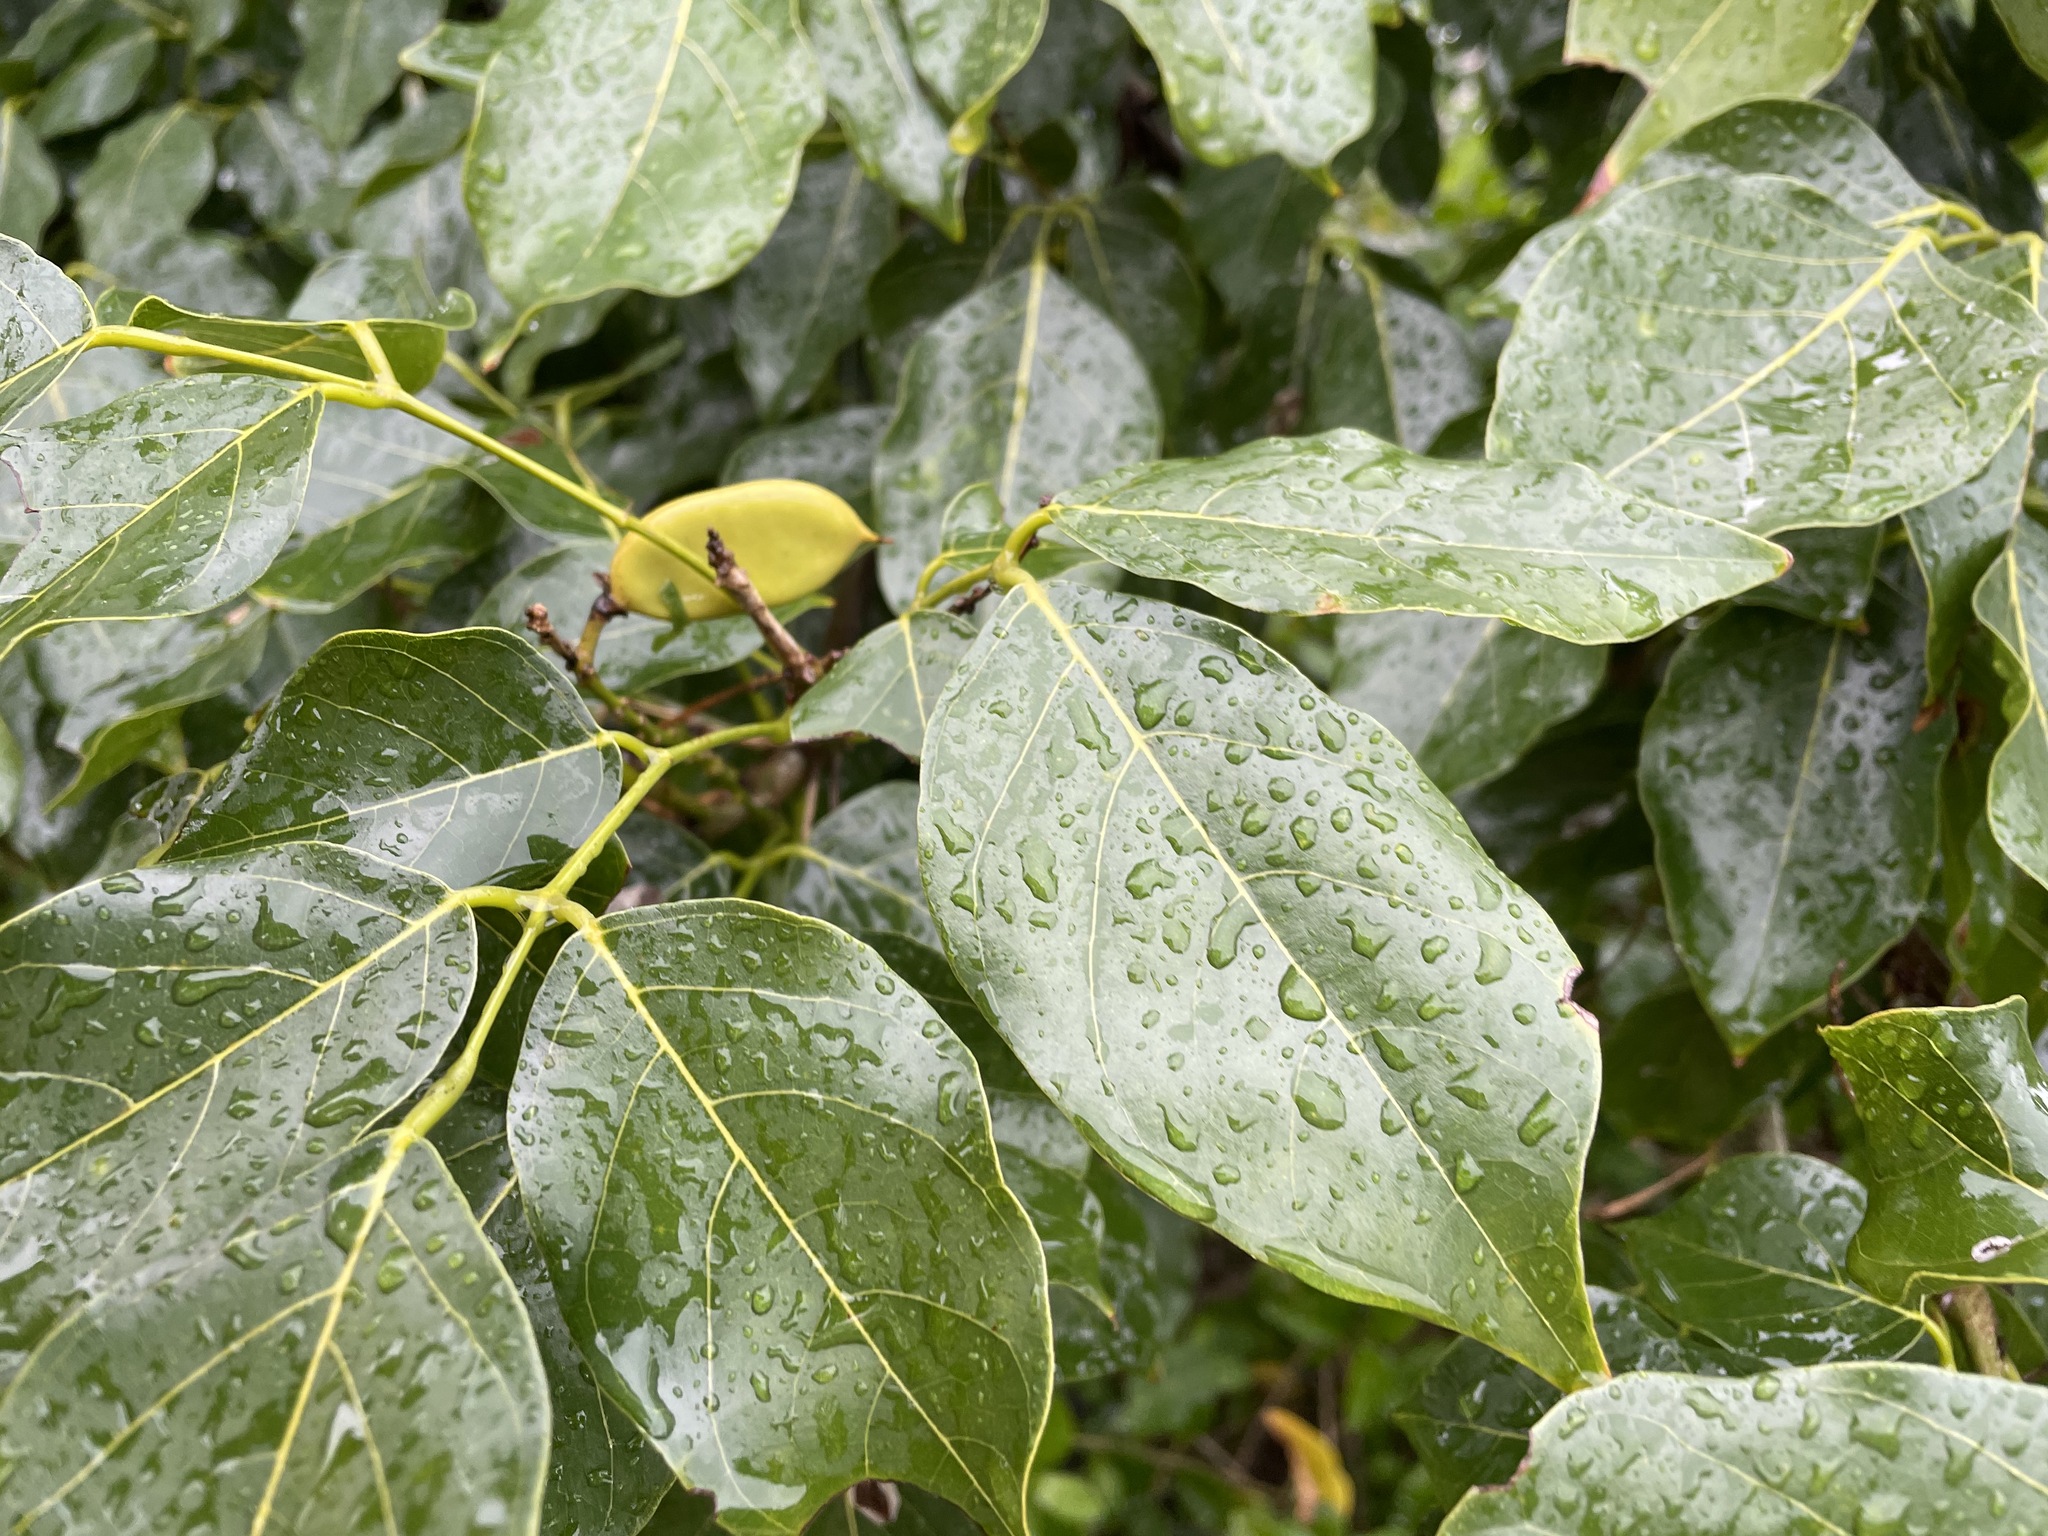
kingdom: Plantae
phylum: Tracheophyta
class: Magnoliopsida
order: Fabales
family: Fabaceae
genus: Pongamia
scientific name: Pongamia pinnata
